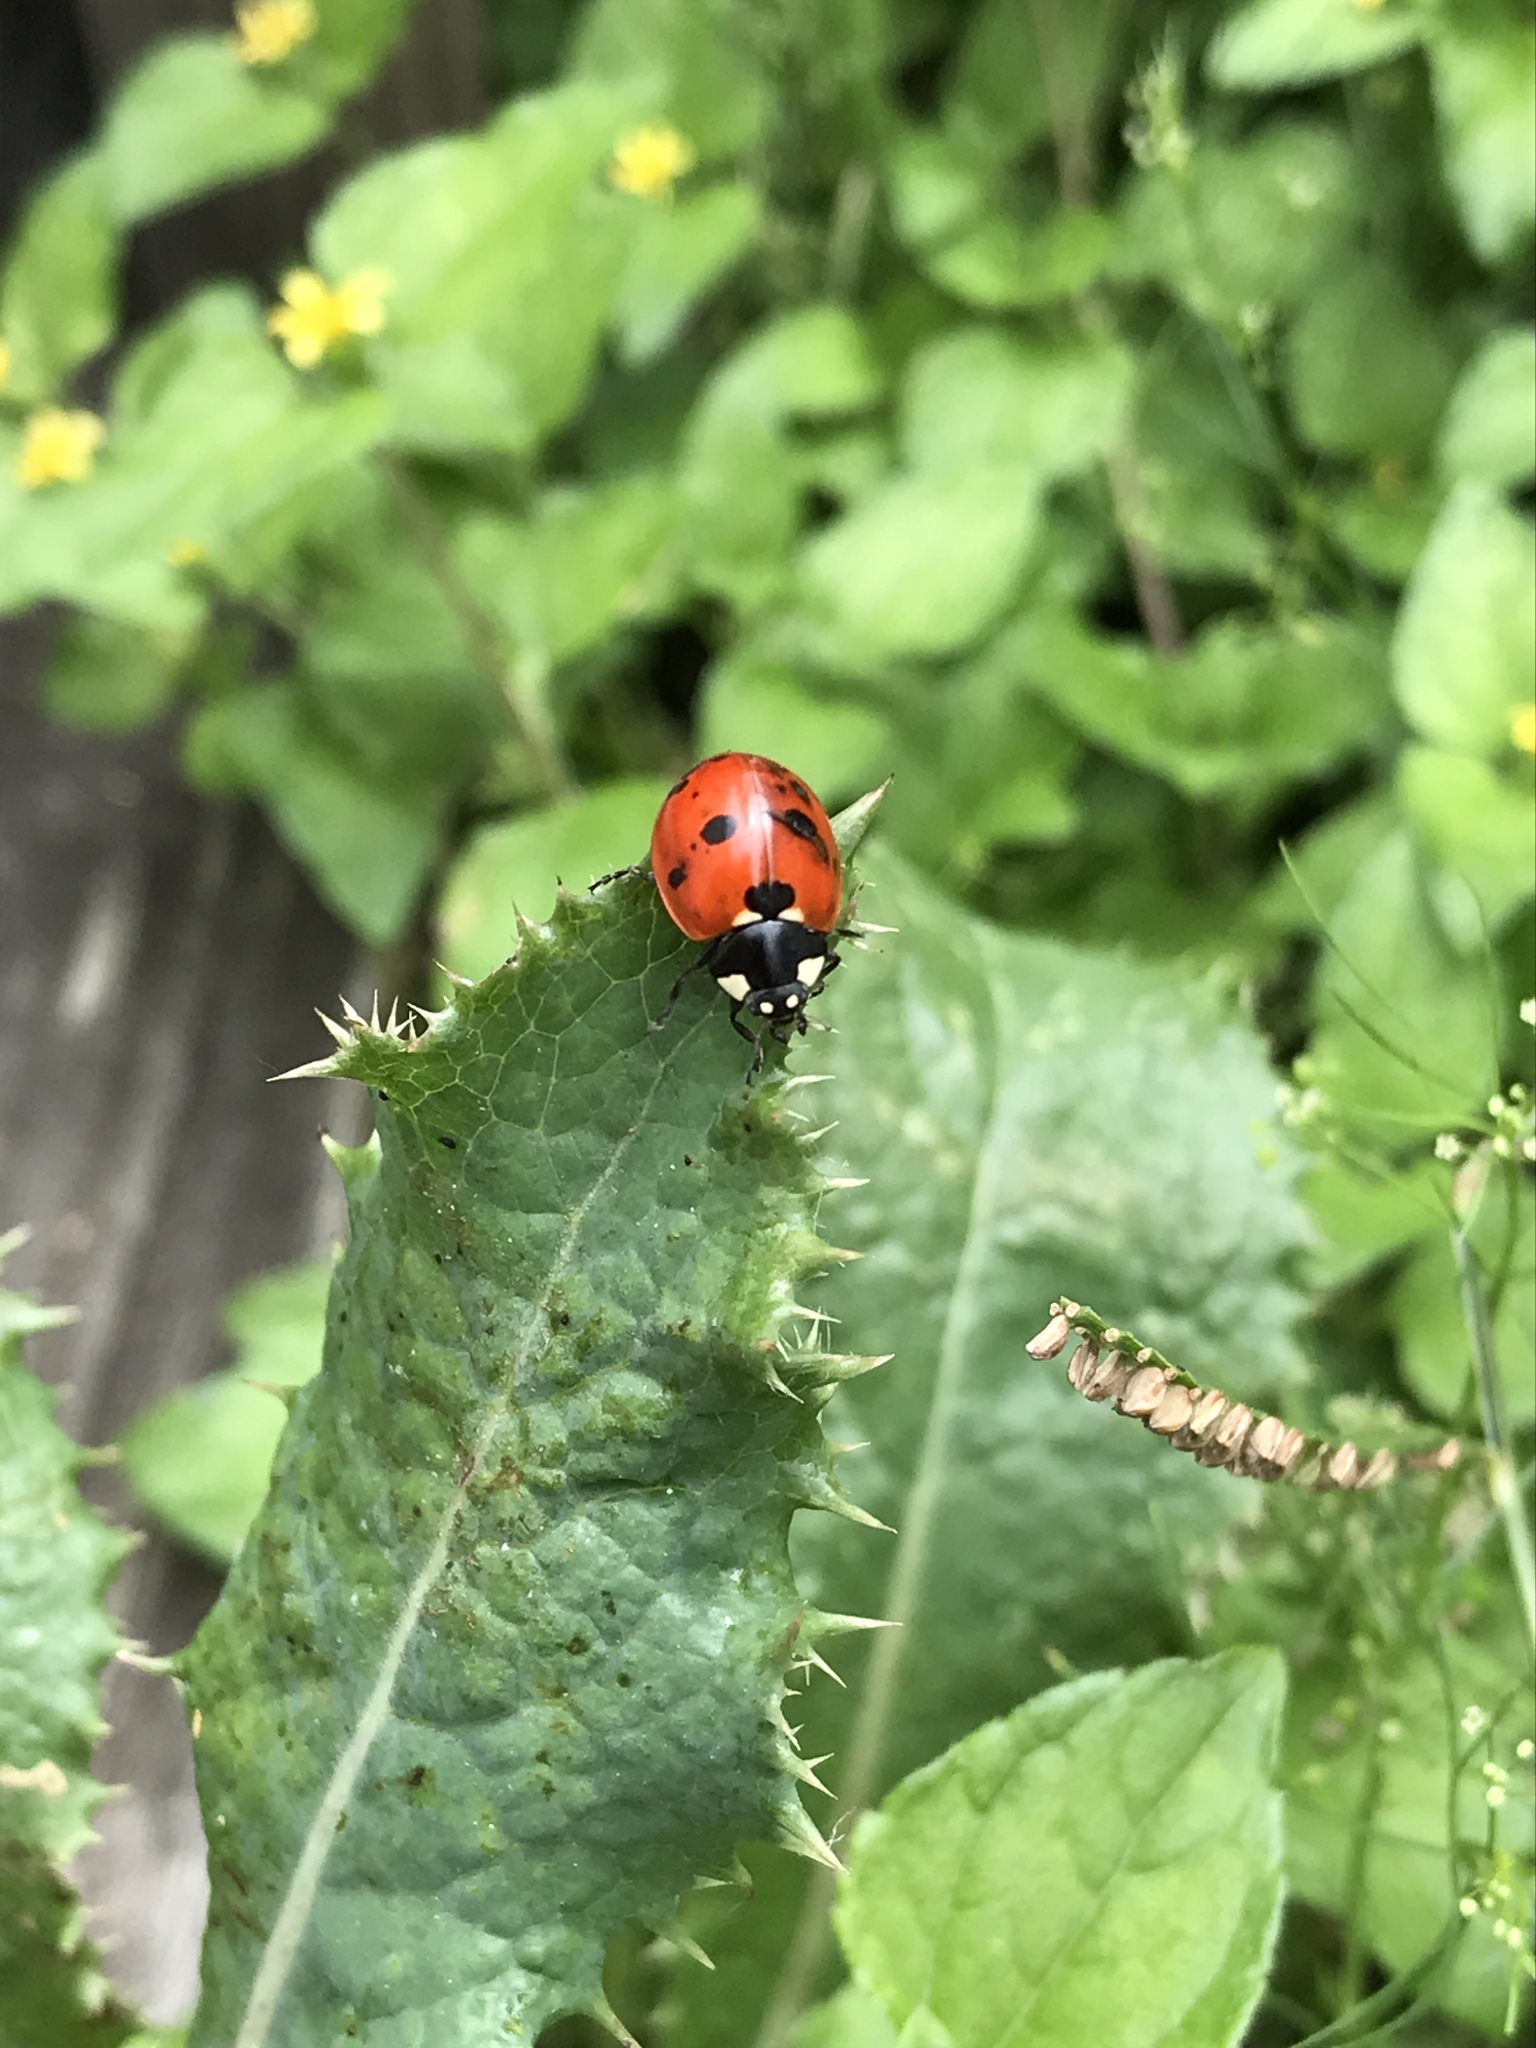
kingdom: Animalia
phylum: Arthropoda
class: Insecta
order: Coleoptera
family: Coccinellidae
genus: Coccinella
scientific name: Coccinella septempunctata
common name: Sevenspotted lady beetle
